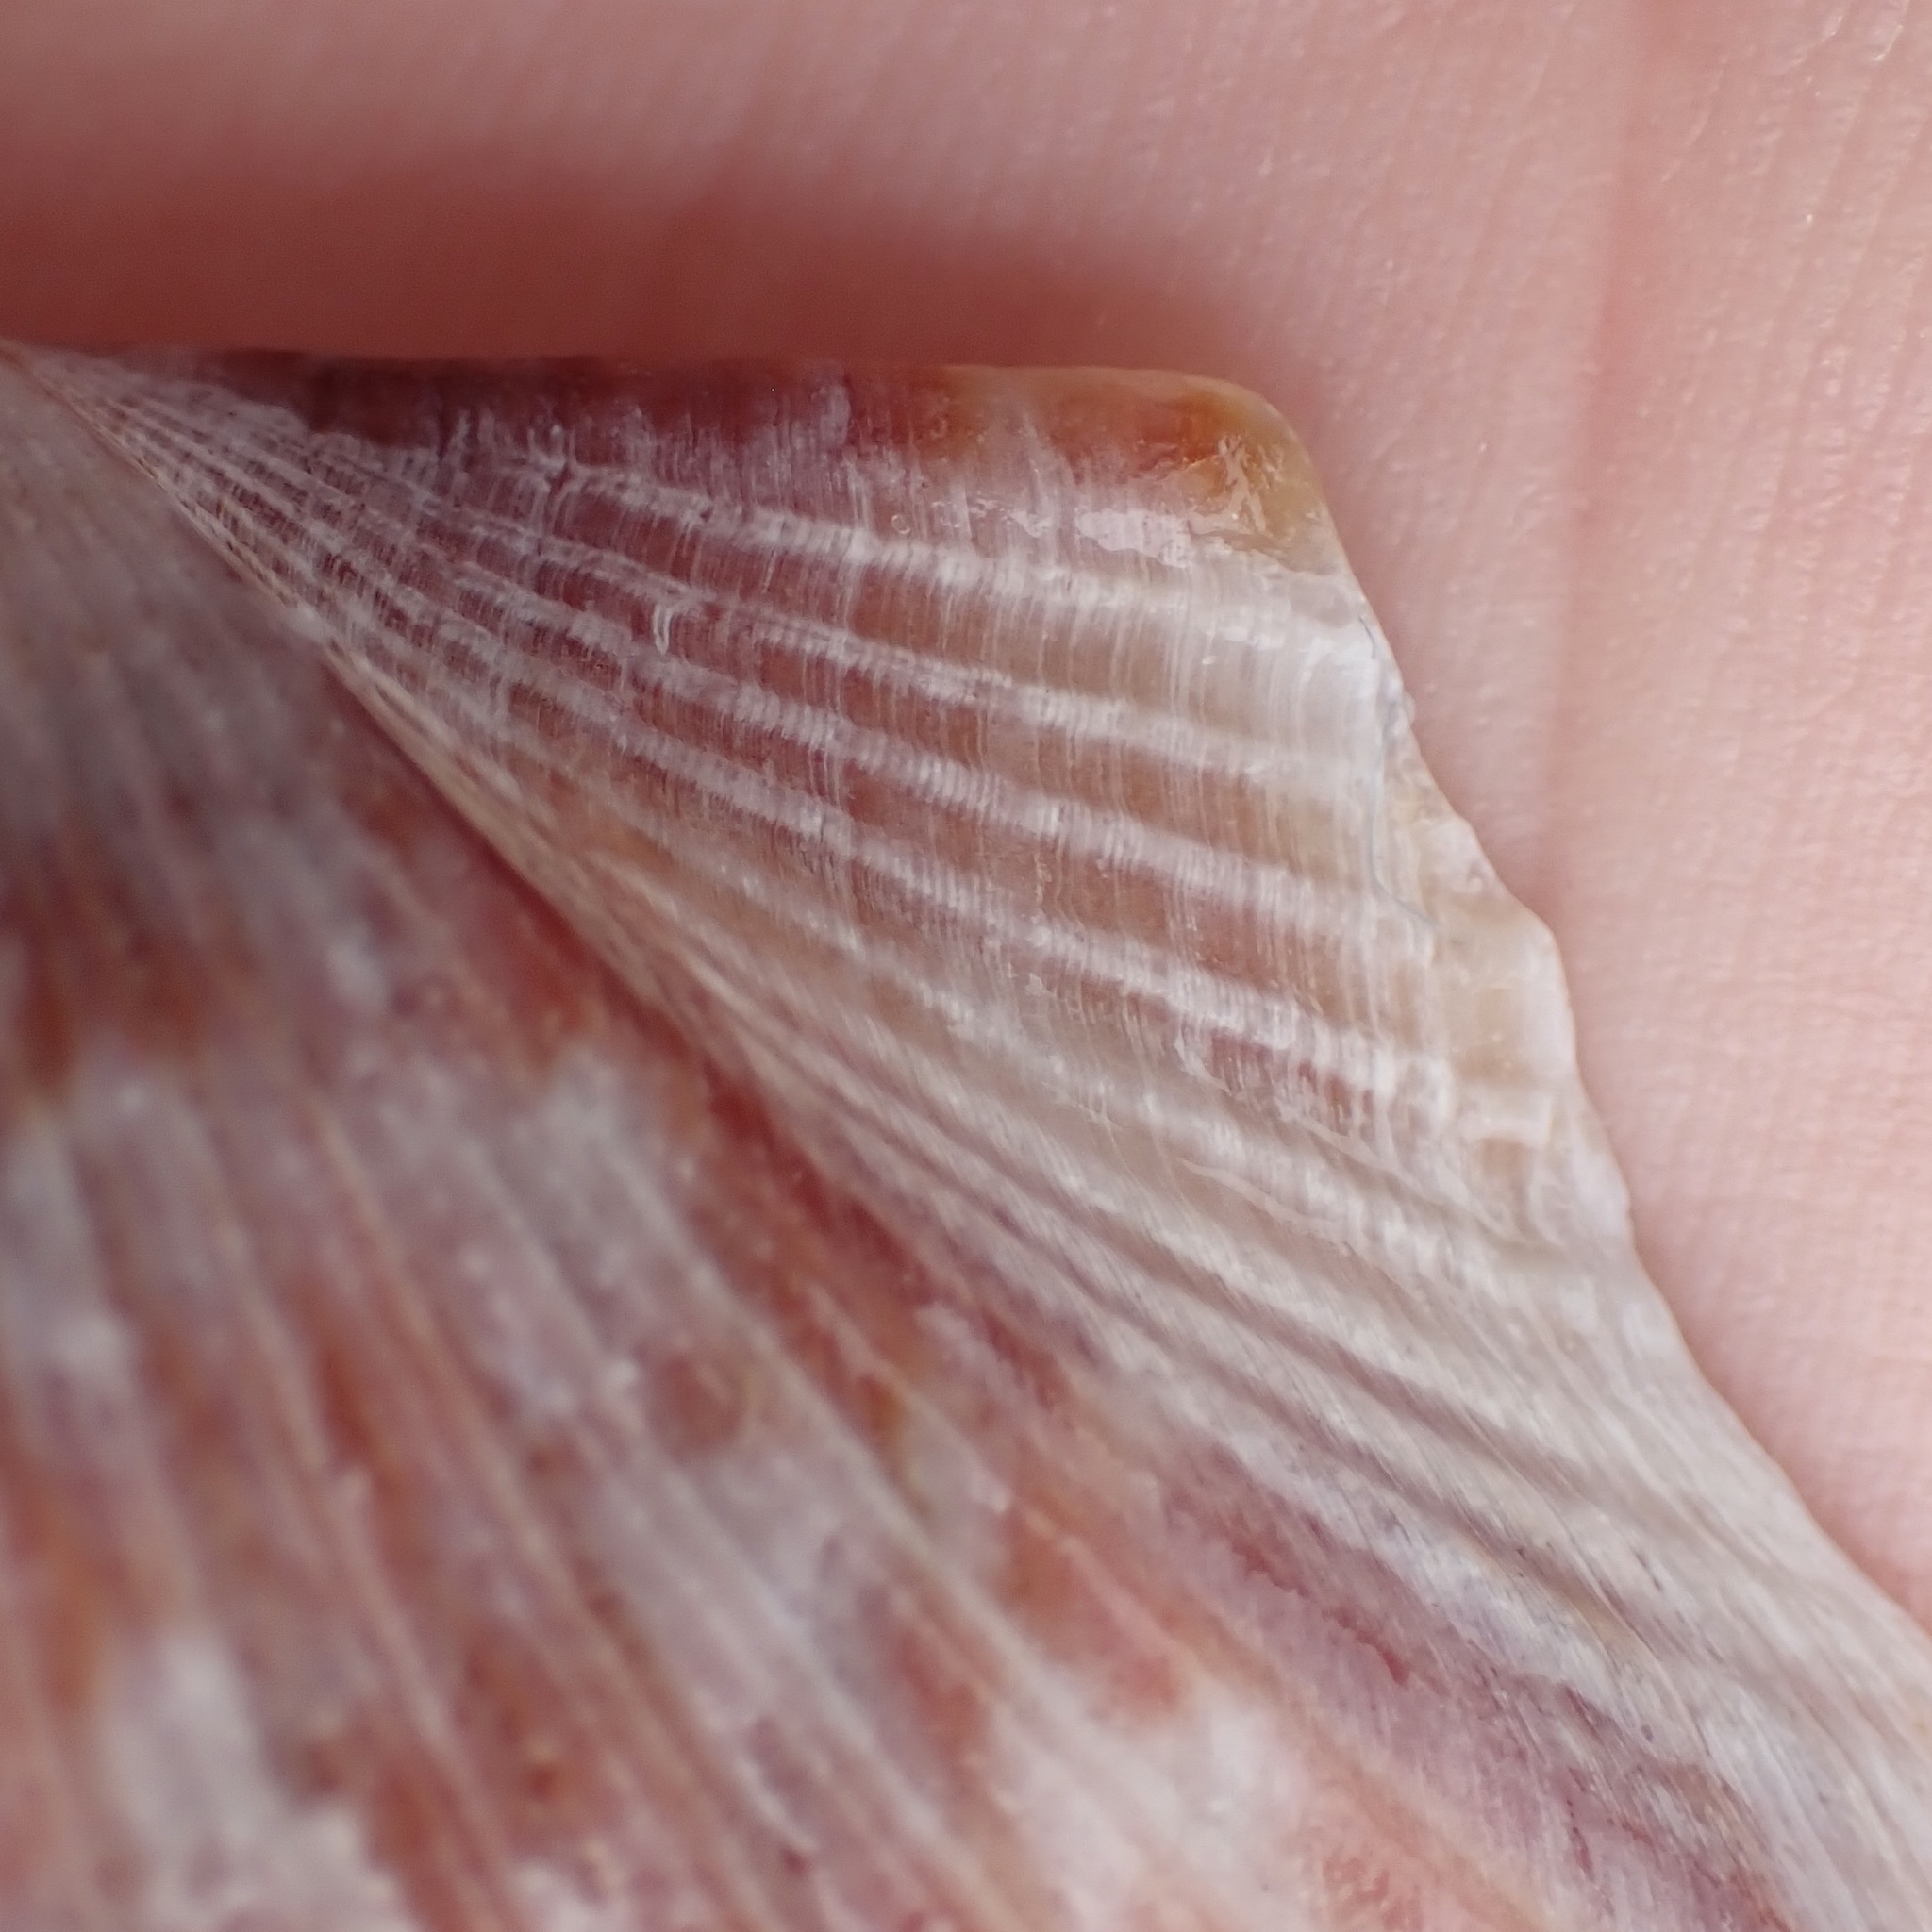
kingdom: Animalia
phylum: Mollusca
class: Bivalvia
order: Pectinida
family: Pectinidae
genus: Argopecten
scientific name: Argopecten irradians
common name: Atlantic bay scallop
